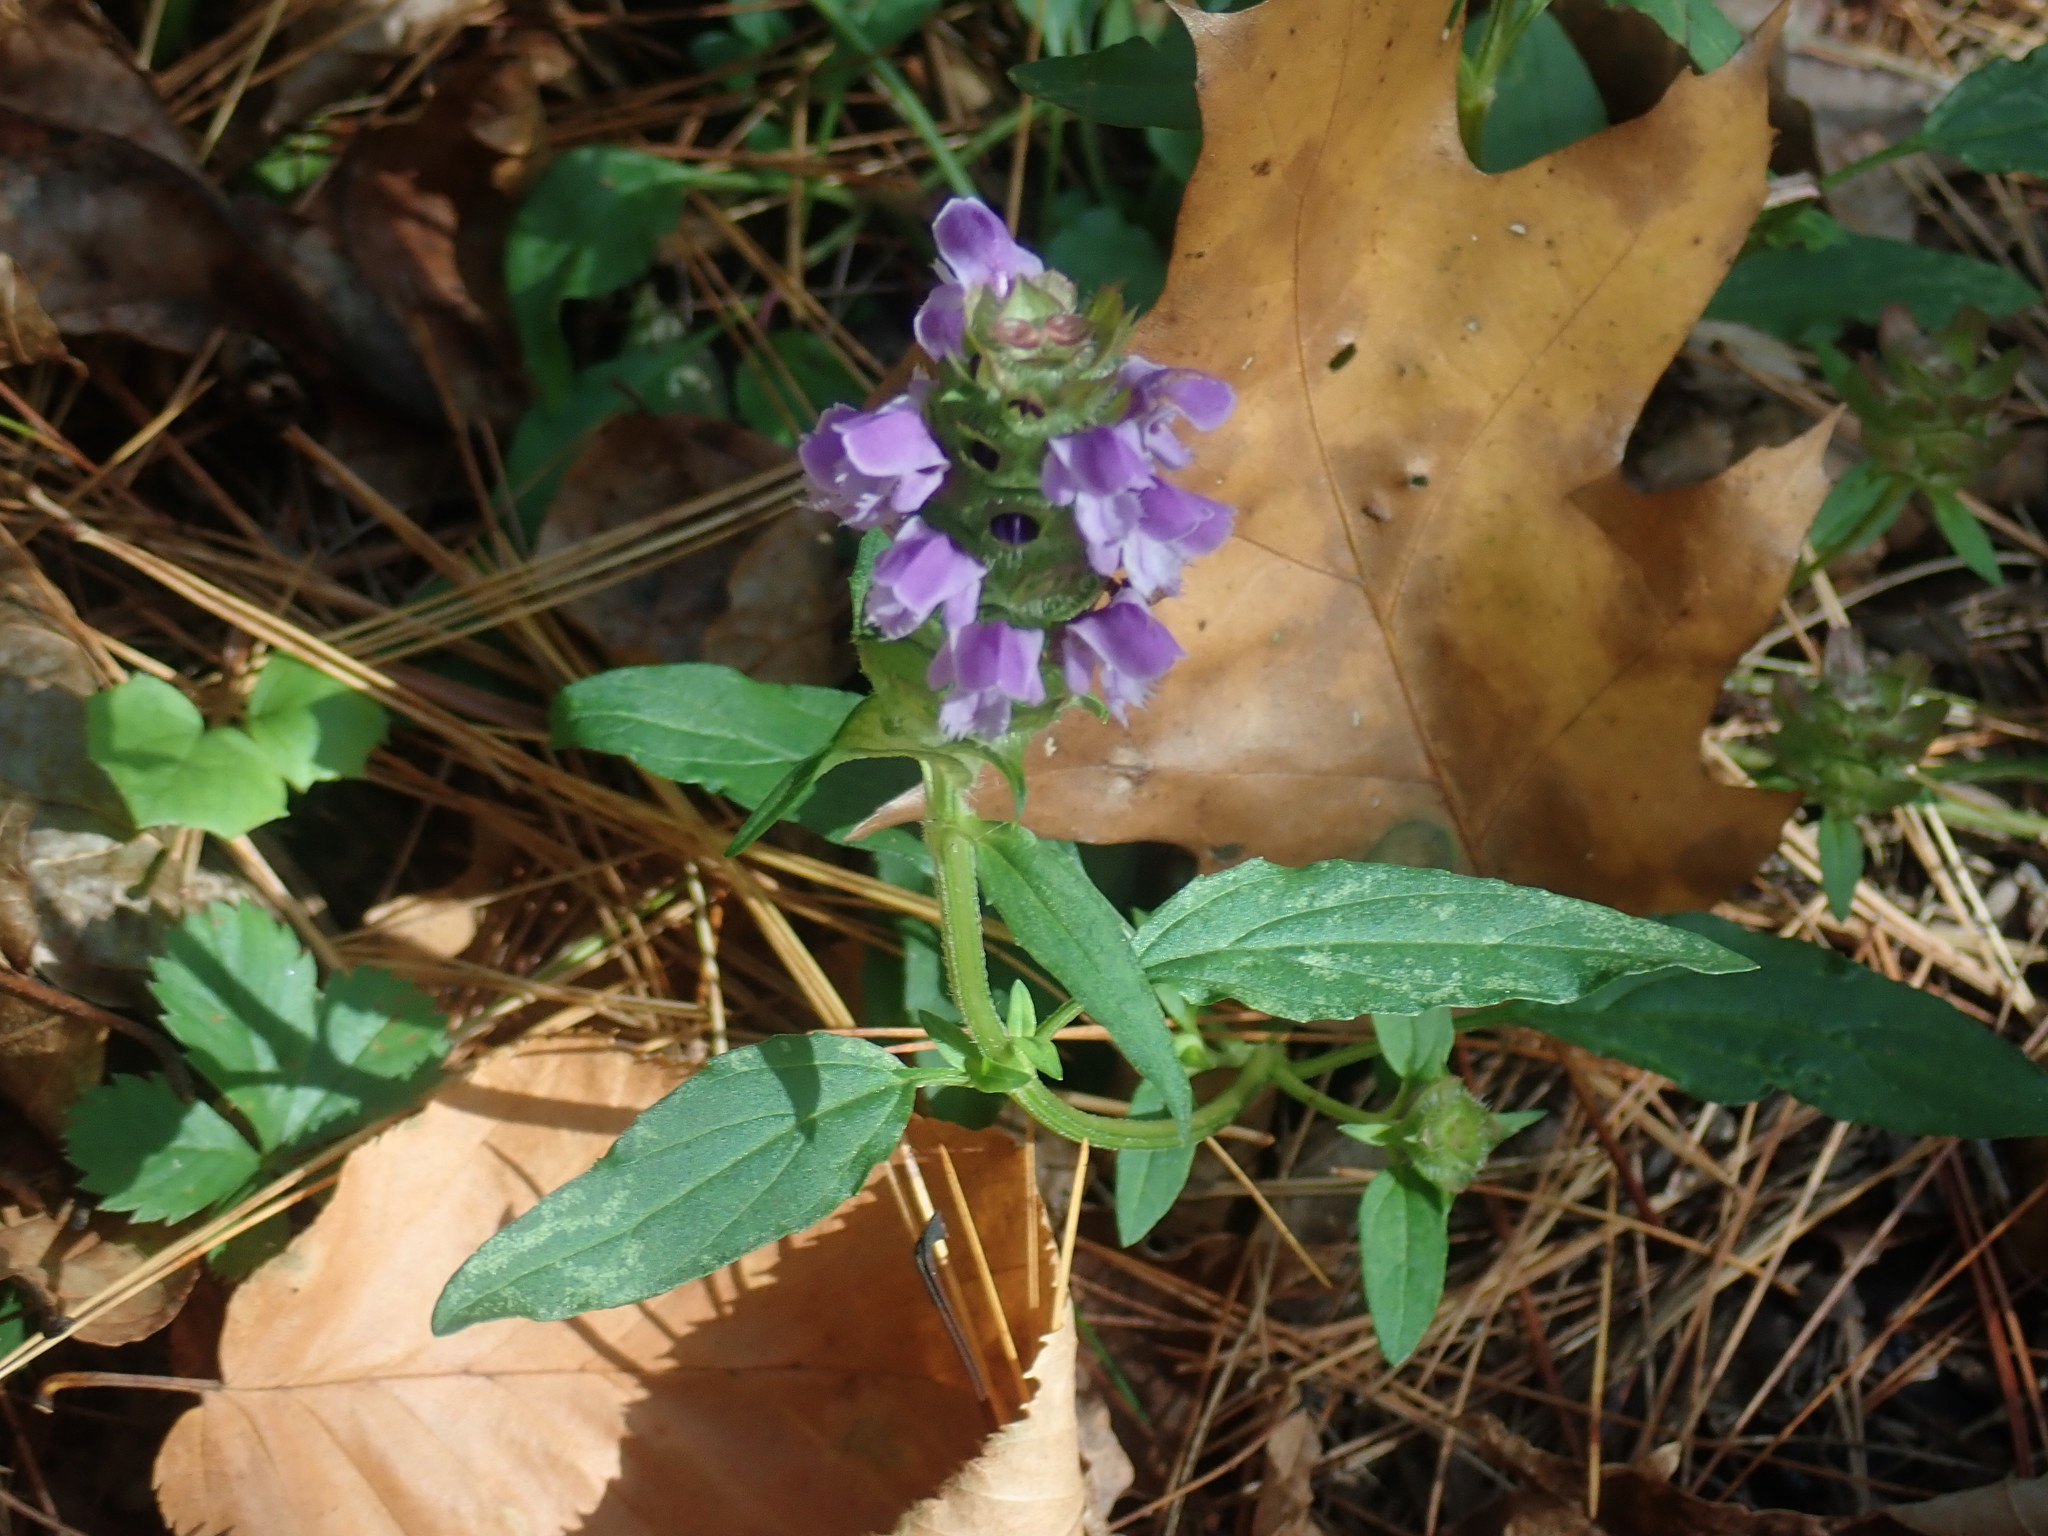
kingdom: Plantae
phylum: Tracheophyta
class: Magnoliopsida
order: Lamiales
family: Lamiaceae
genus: Prunella
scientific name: Prunella vulgaris
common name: Heal-all
